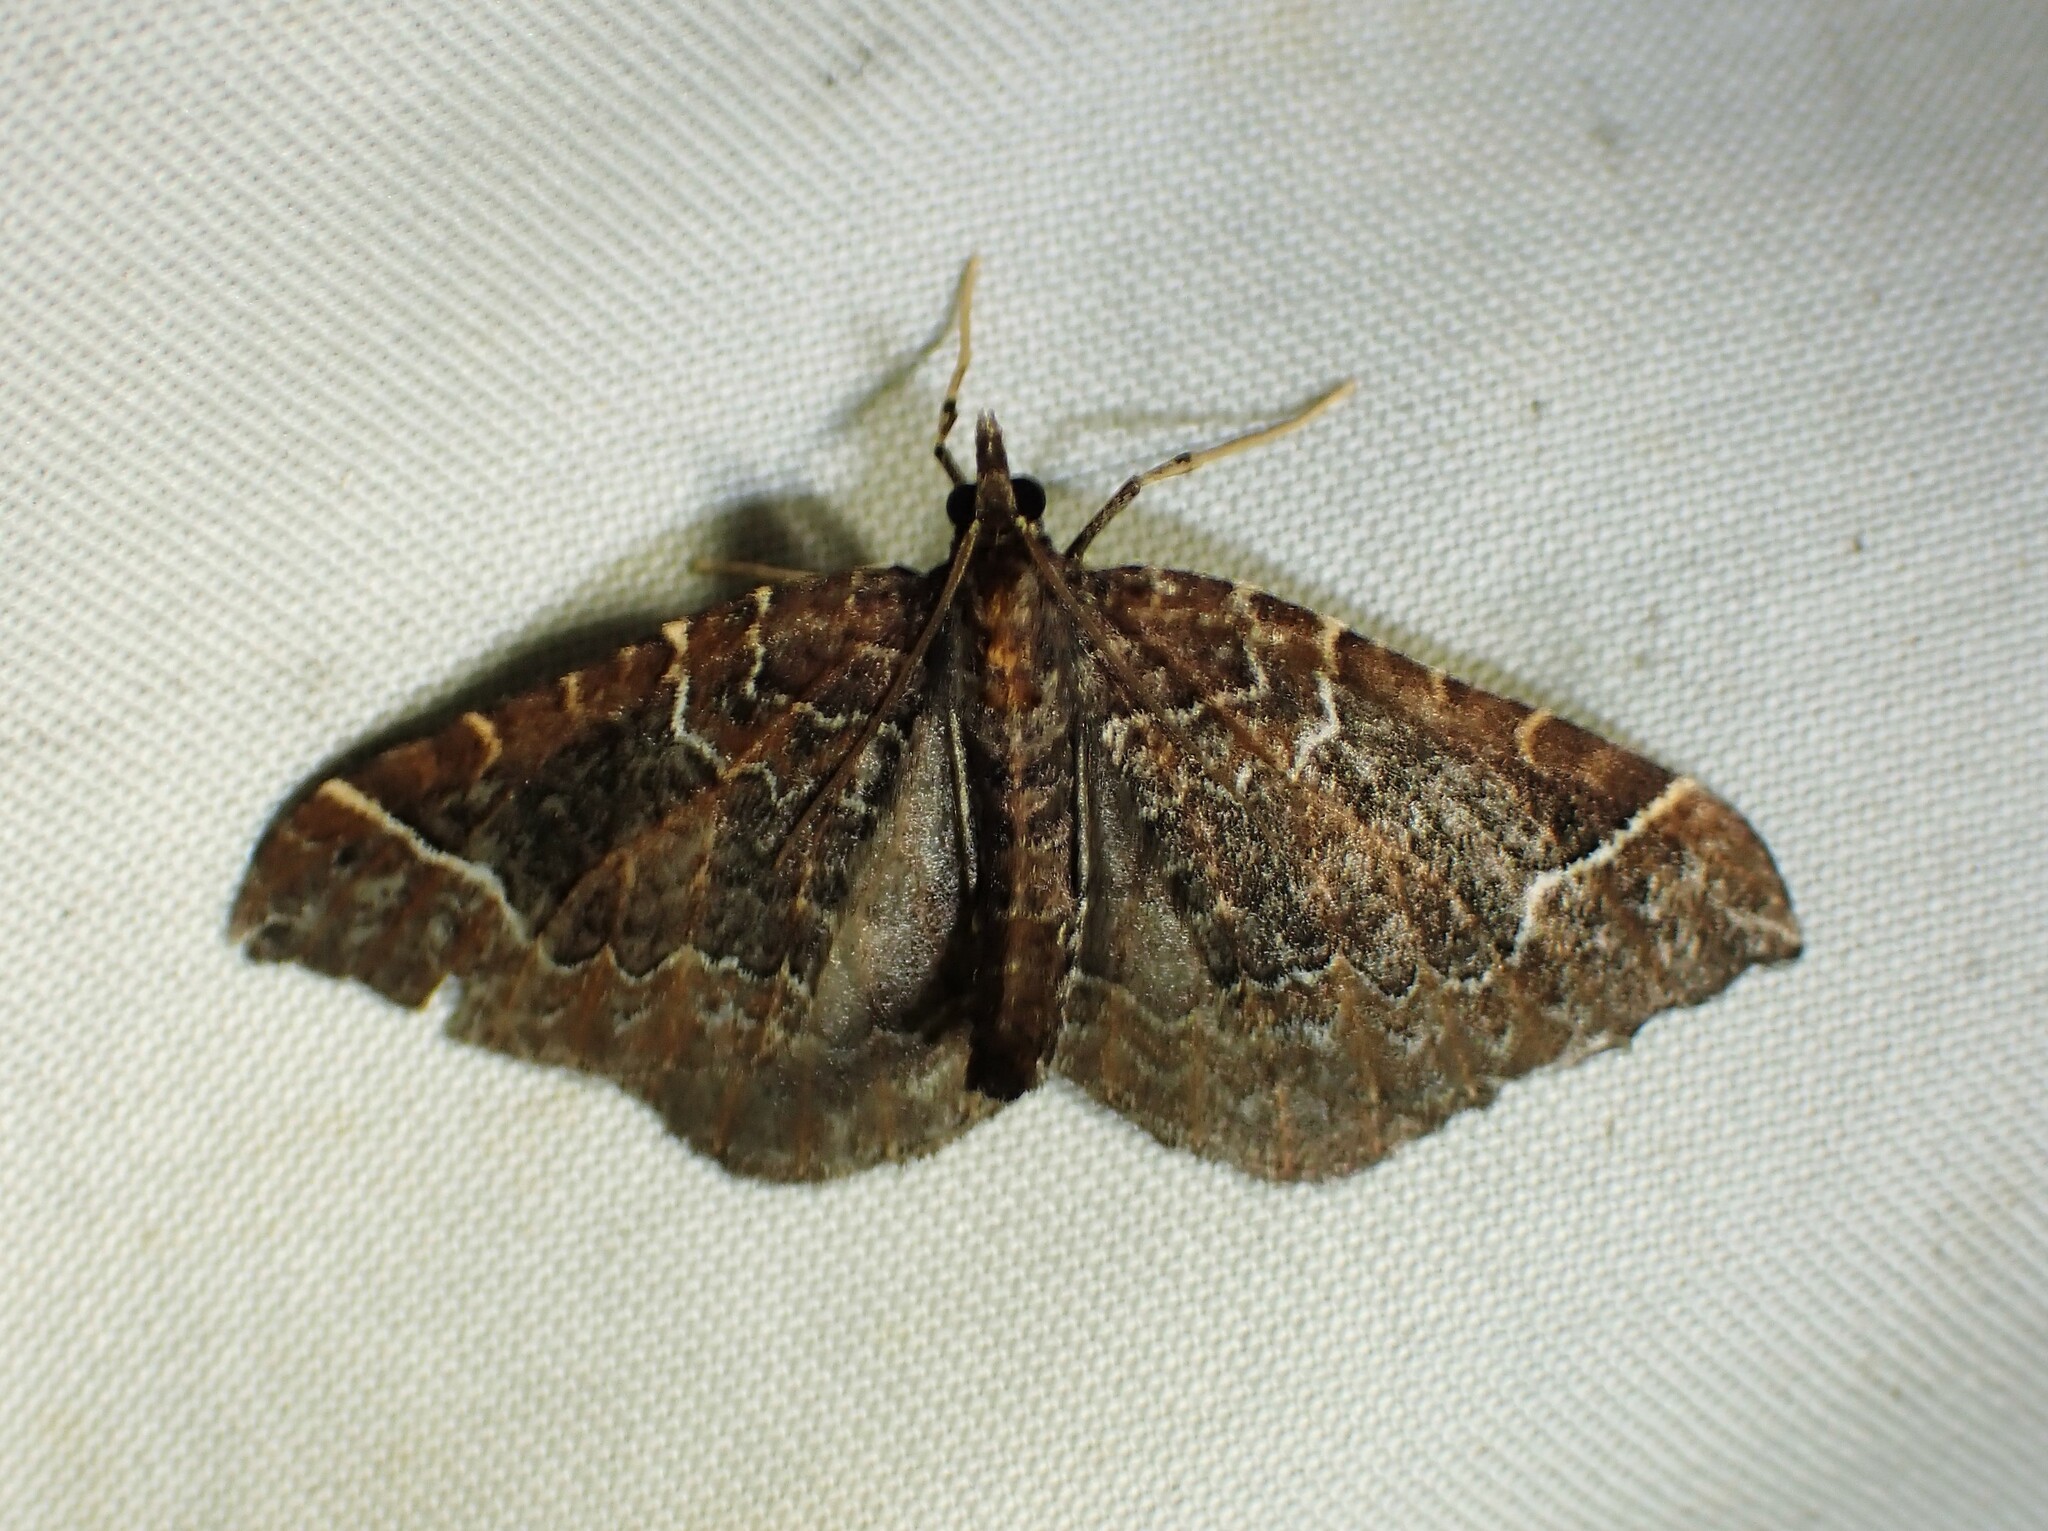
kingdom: Animalia
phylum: Arthropoda
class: Insecta
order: Lepidoptera
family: Geometridae
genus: Eulithis
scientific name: Eulithis flavibrunneata
